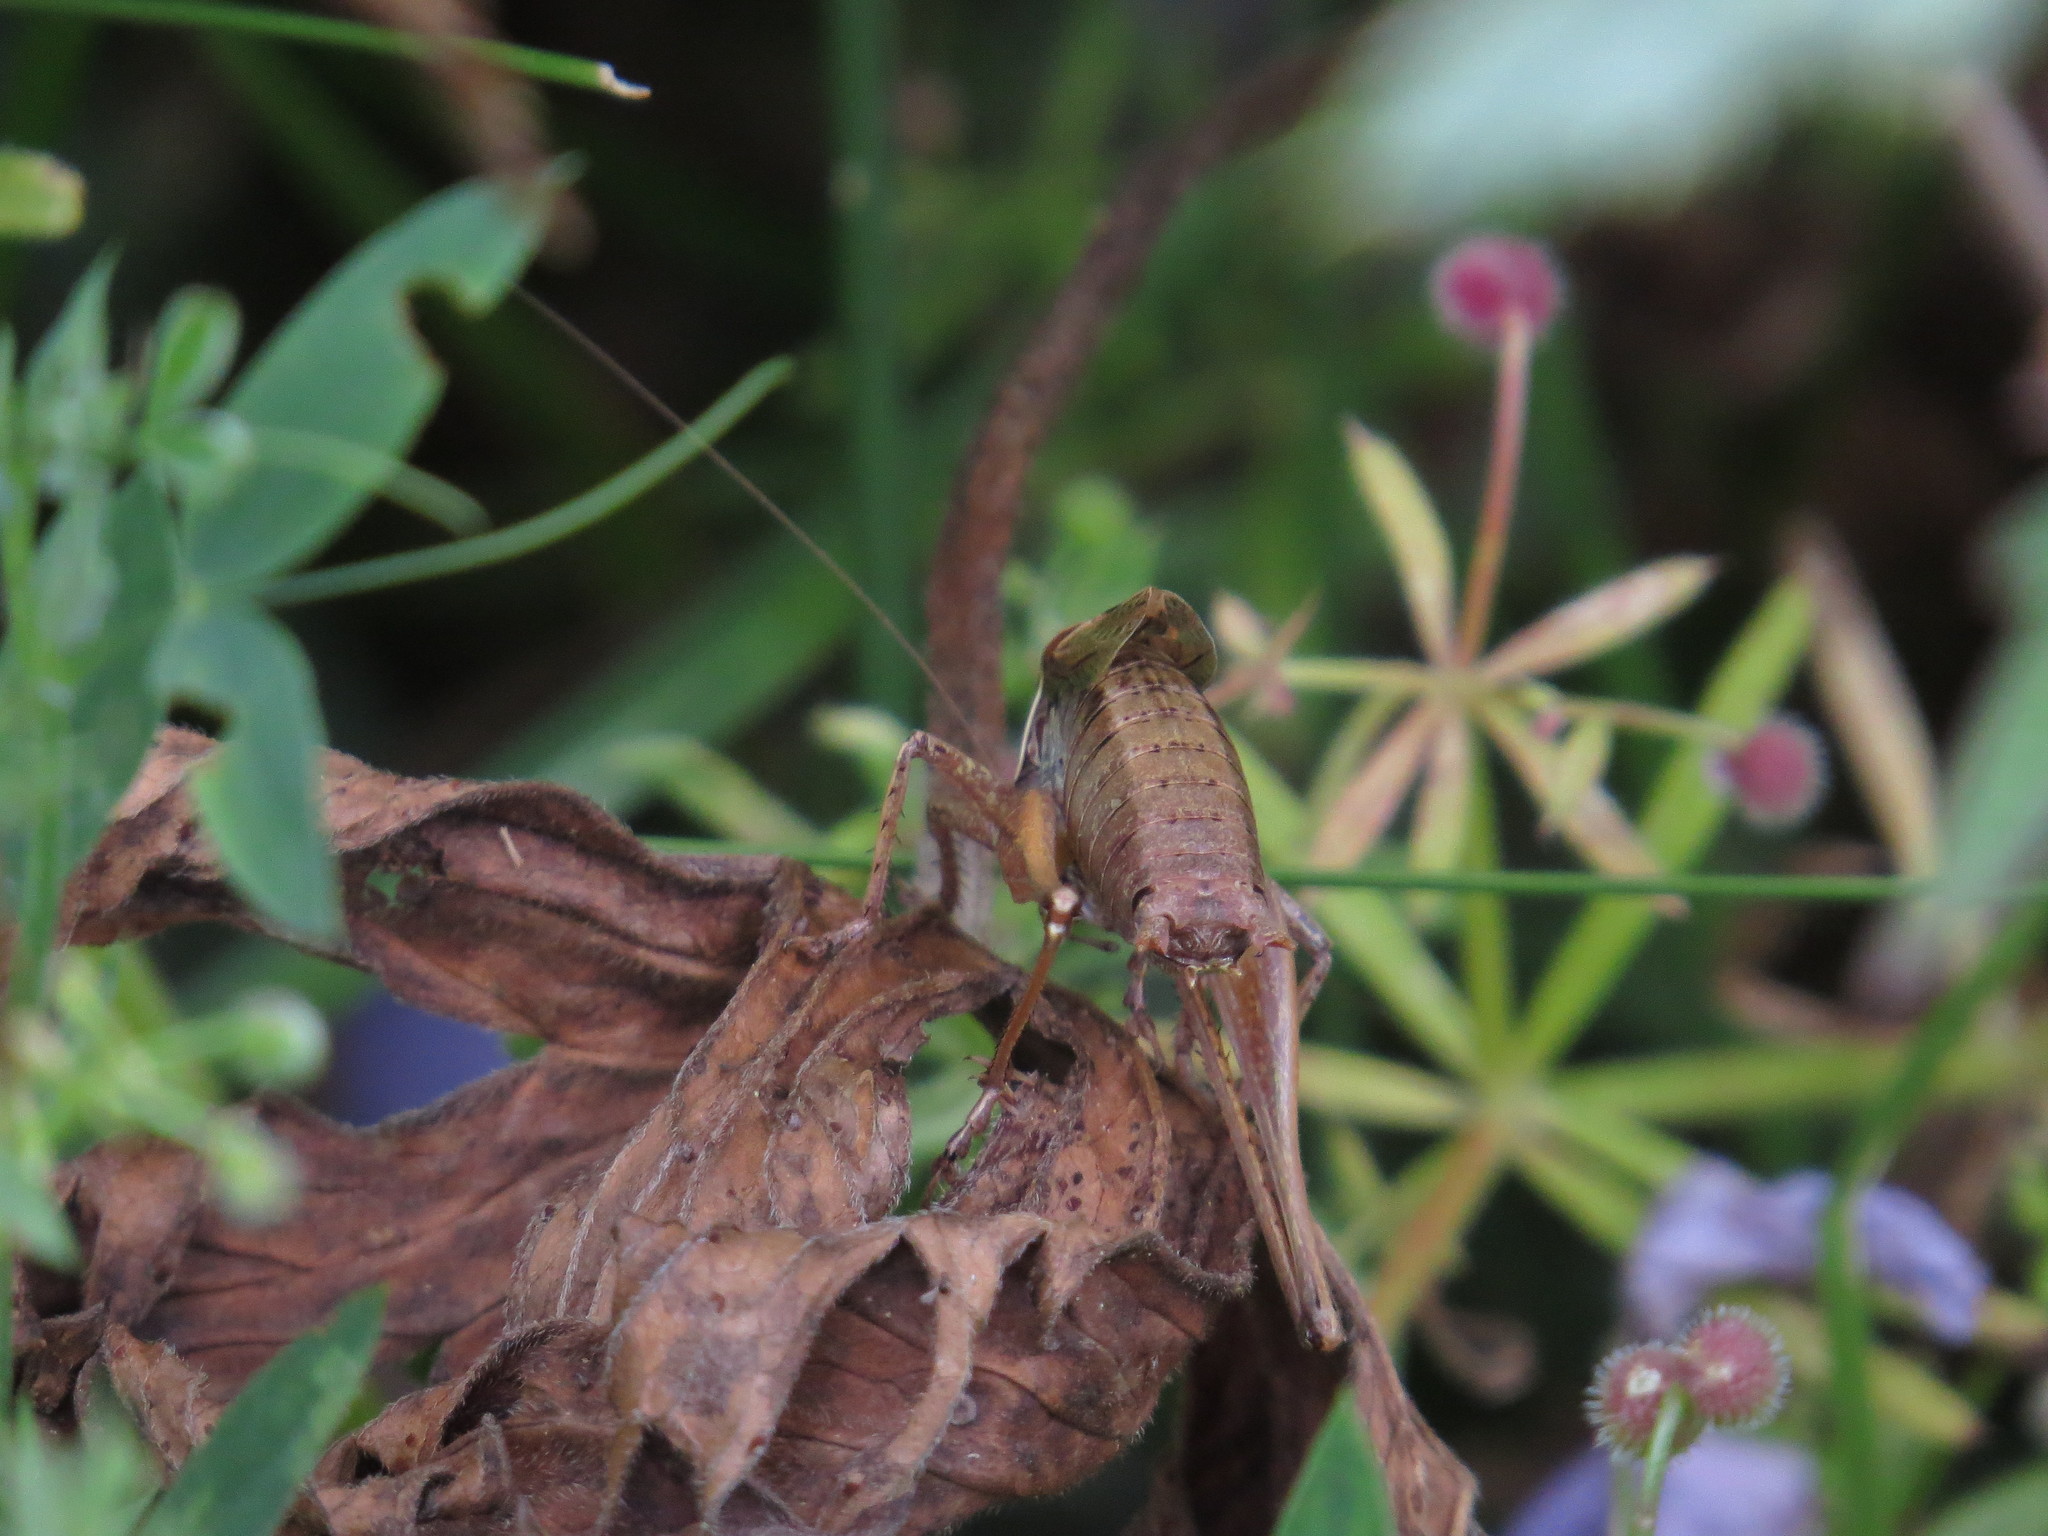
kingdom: Animalia
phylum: Arthropoda
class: Insecta
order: Orthoptera
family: Tettigoniidae
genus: Metrioptera
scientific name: Metrioptera saussuriana
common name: Purple meadow bush-cricket
